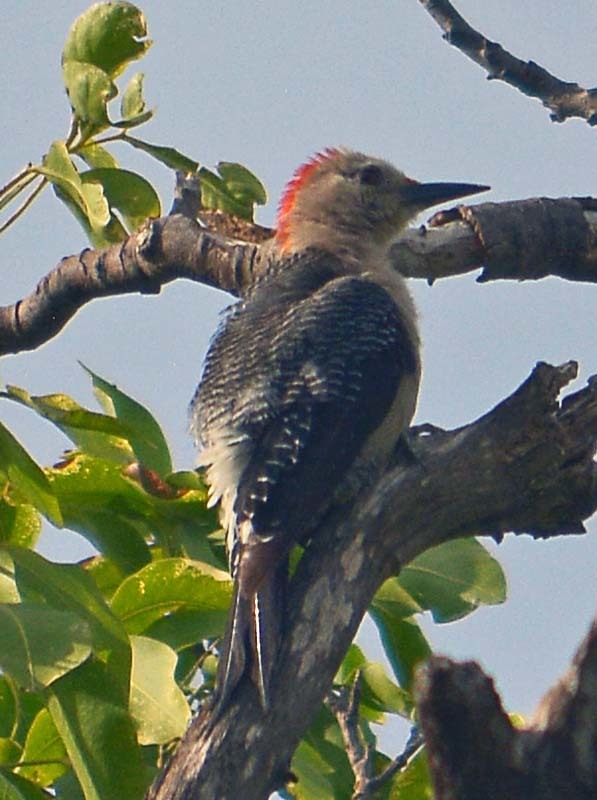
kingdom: Animalia
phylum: Chordata
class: Aves
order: Piciformes
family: Picidae
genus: Melanerpes
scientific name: Melanerpes aurifrons
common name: Golden-fronted woodpecker
